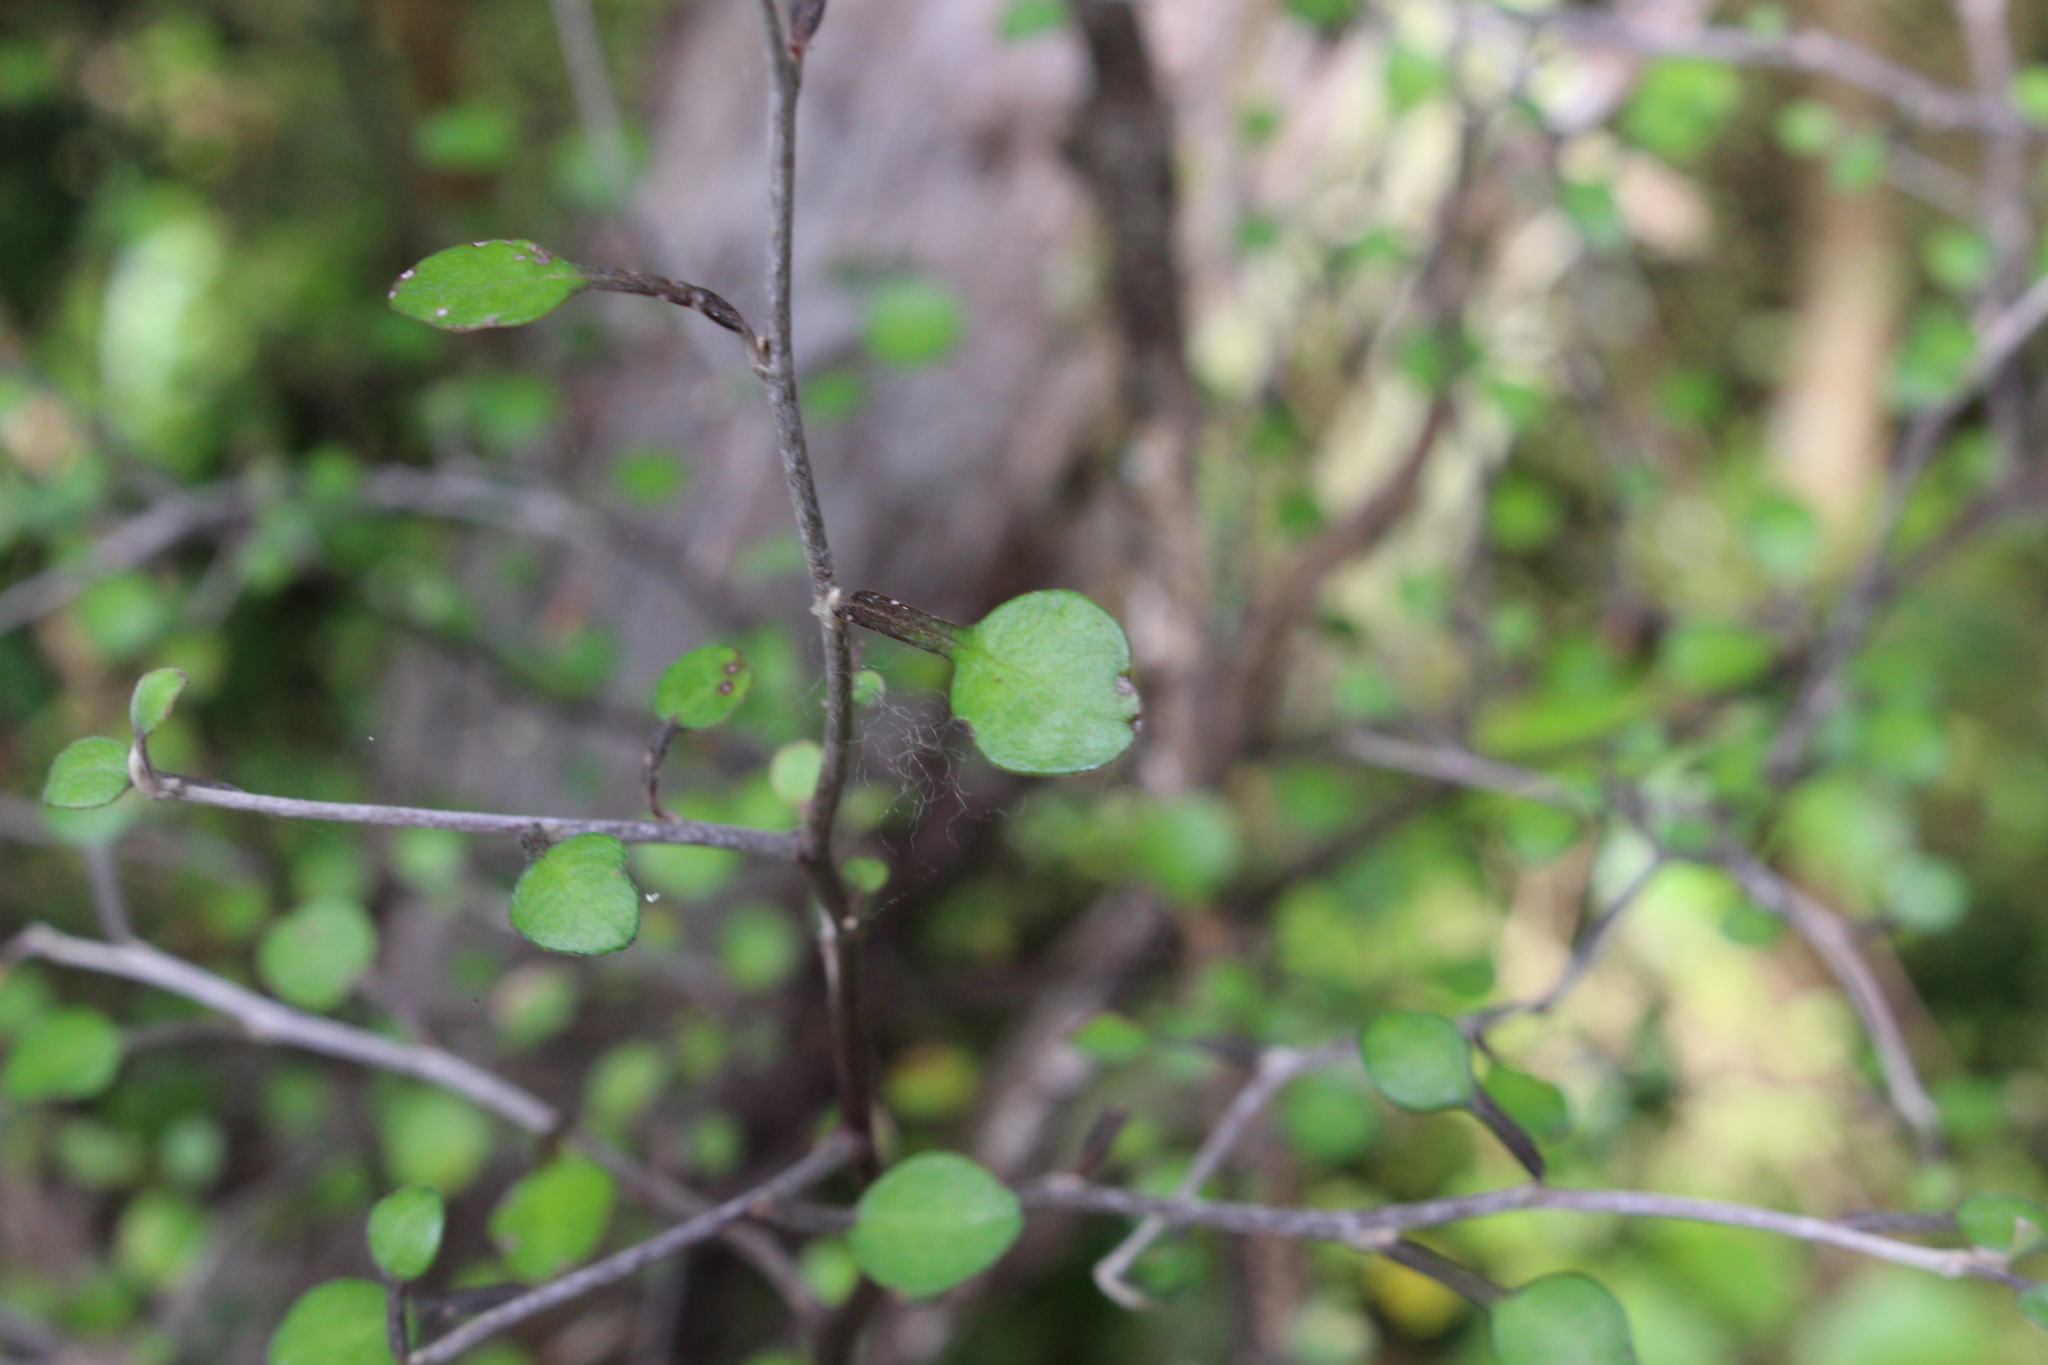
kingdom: Plantae
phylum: Tracheophyta
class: Magnoliopsida
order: Asterales
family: Argophyllaceae
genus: Corokia
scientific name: Corokia cotoneaster
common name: Wire nettingbush
